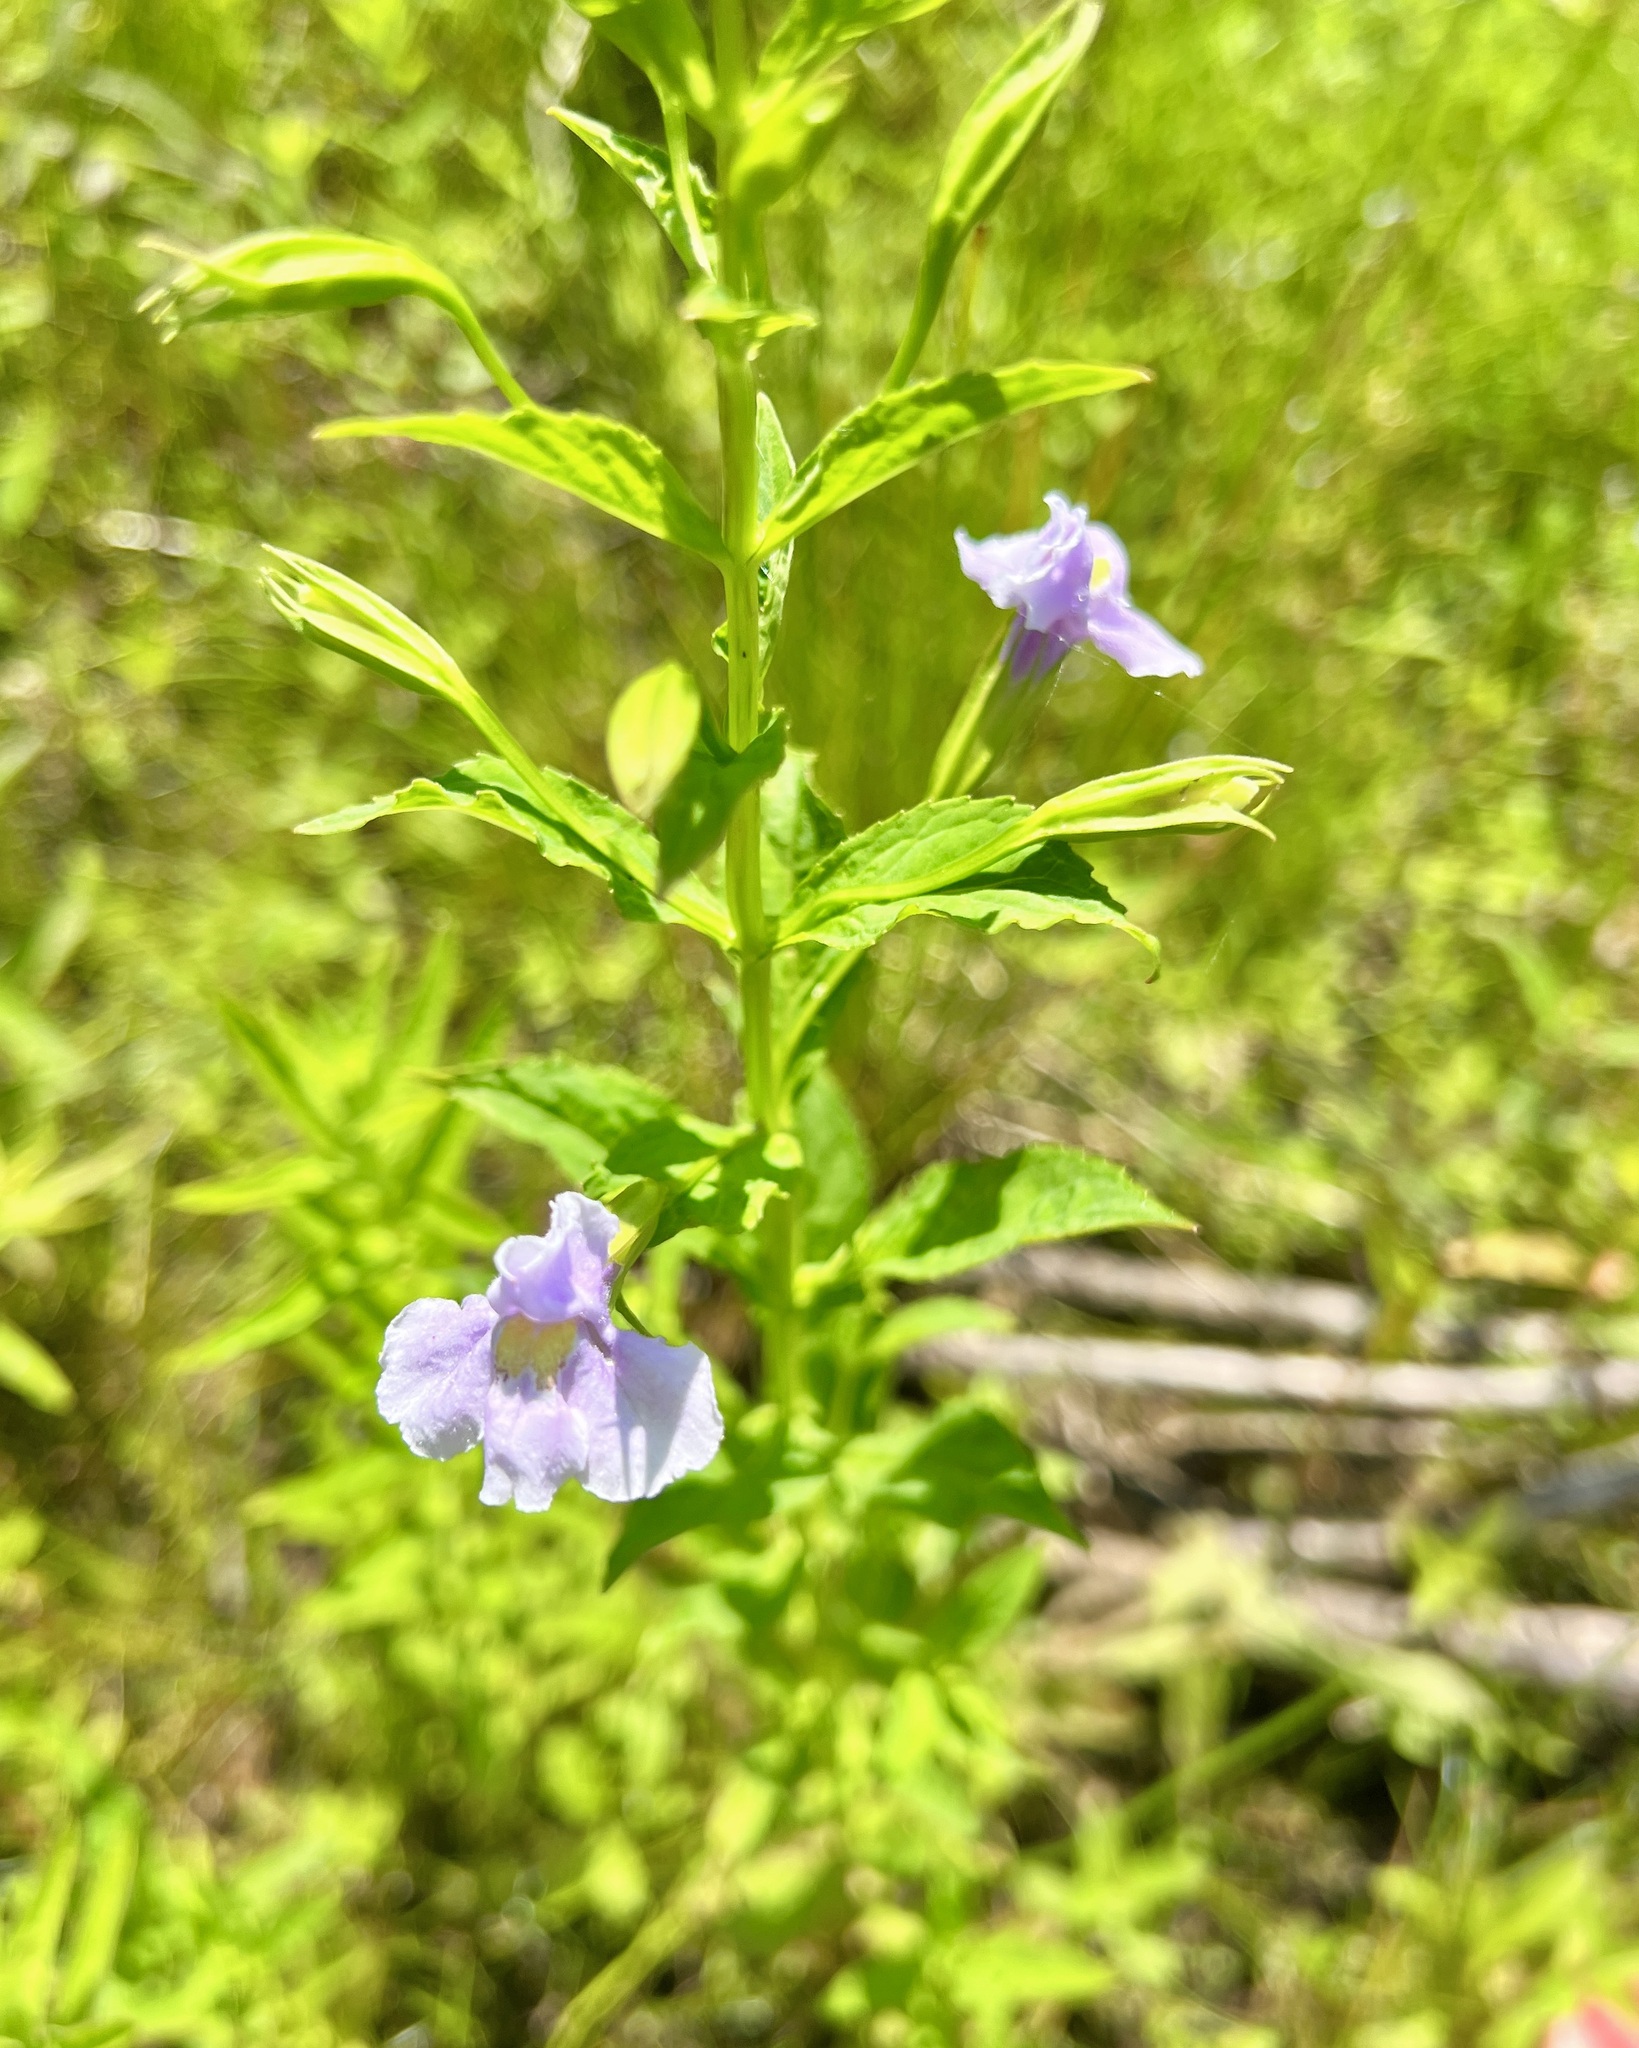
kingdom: Plantae
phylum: Tracheophyta
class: Magnoliopsida
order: Lamiales
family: Phrymaceae
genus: Mimulus
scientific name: Mimulus ringens
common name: Allegheny monkeyflower
